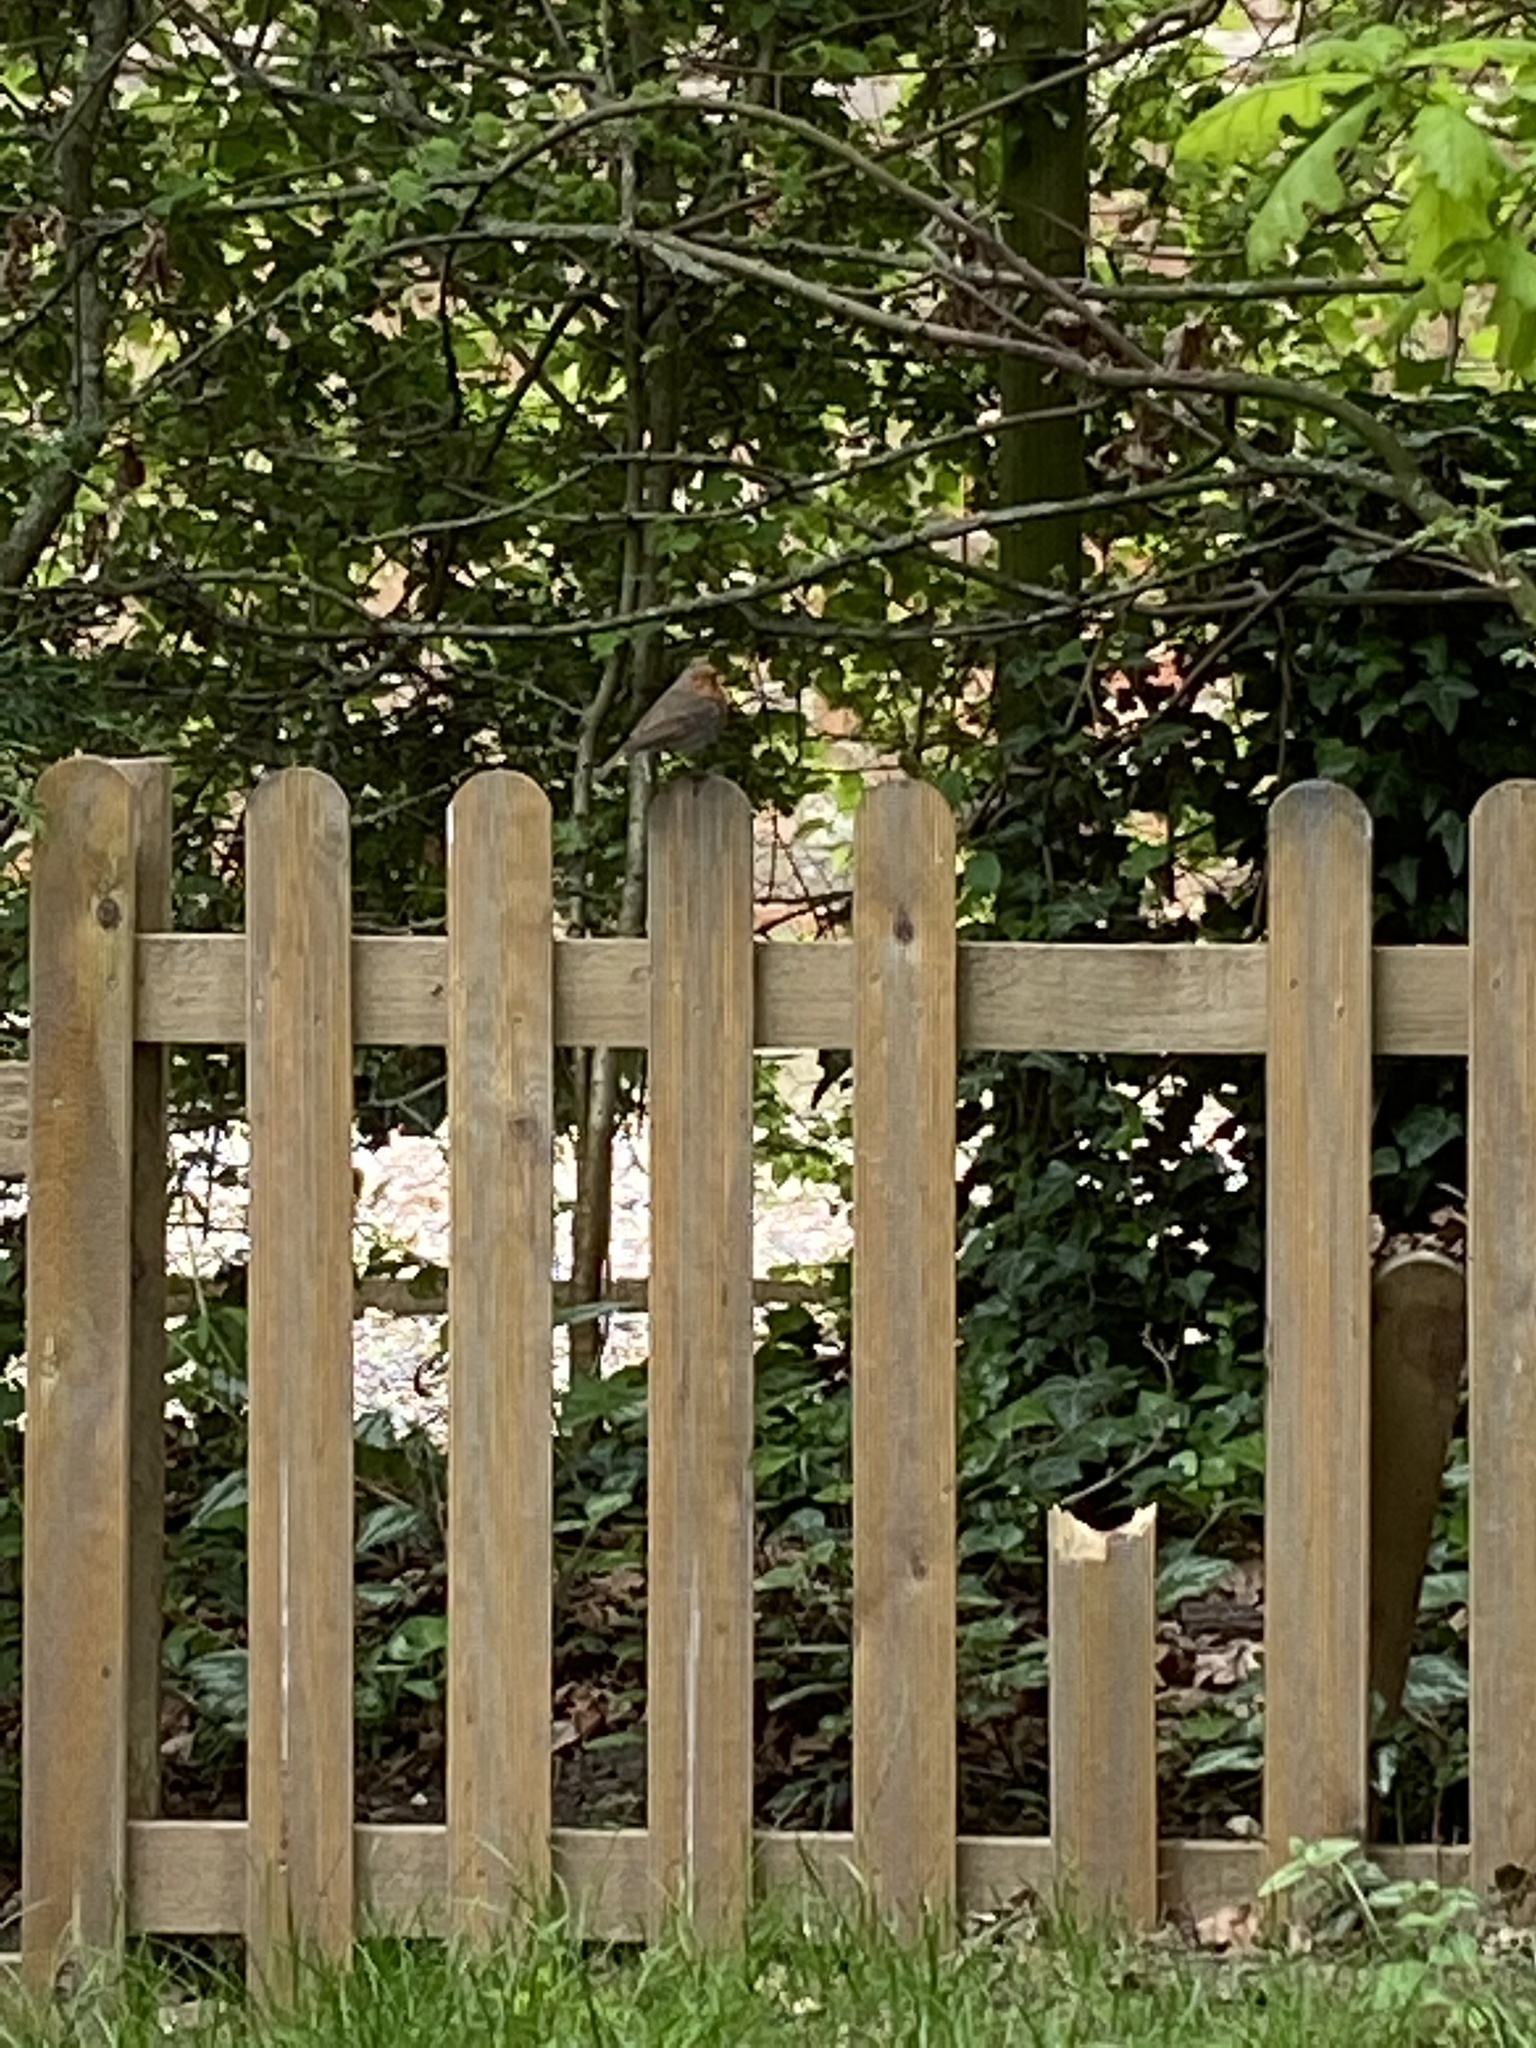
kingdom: Animalia
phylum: Chordata
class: Aves
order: Passeriformes
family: Muscicapidae
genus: Erithacus
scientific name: Erithacus rubecula
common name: European robin
